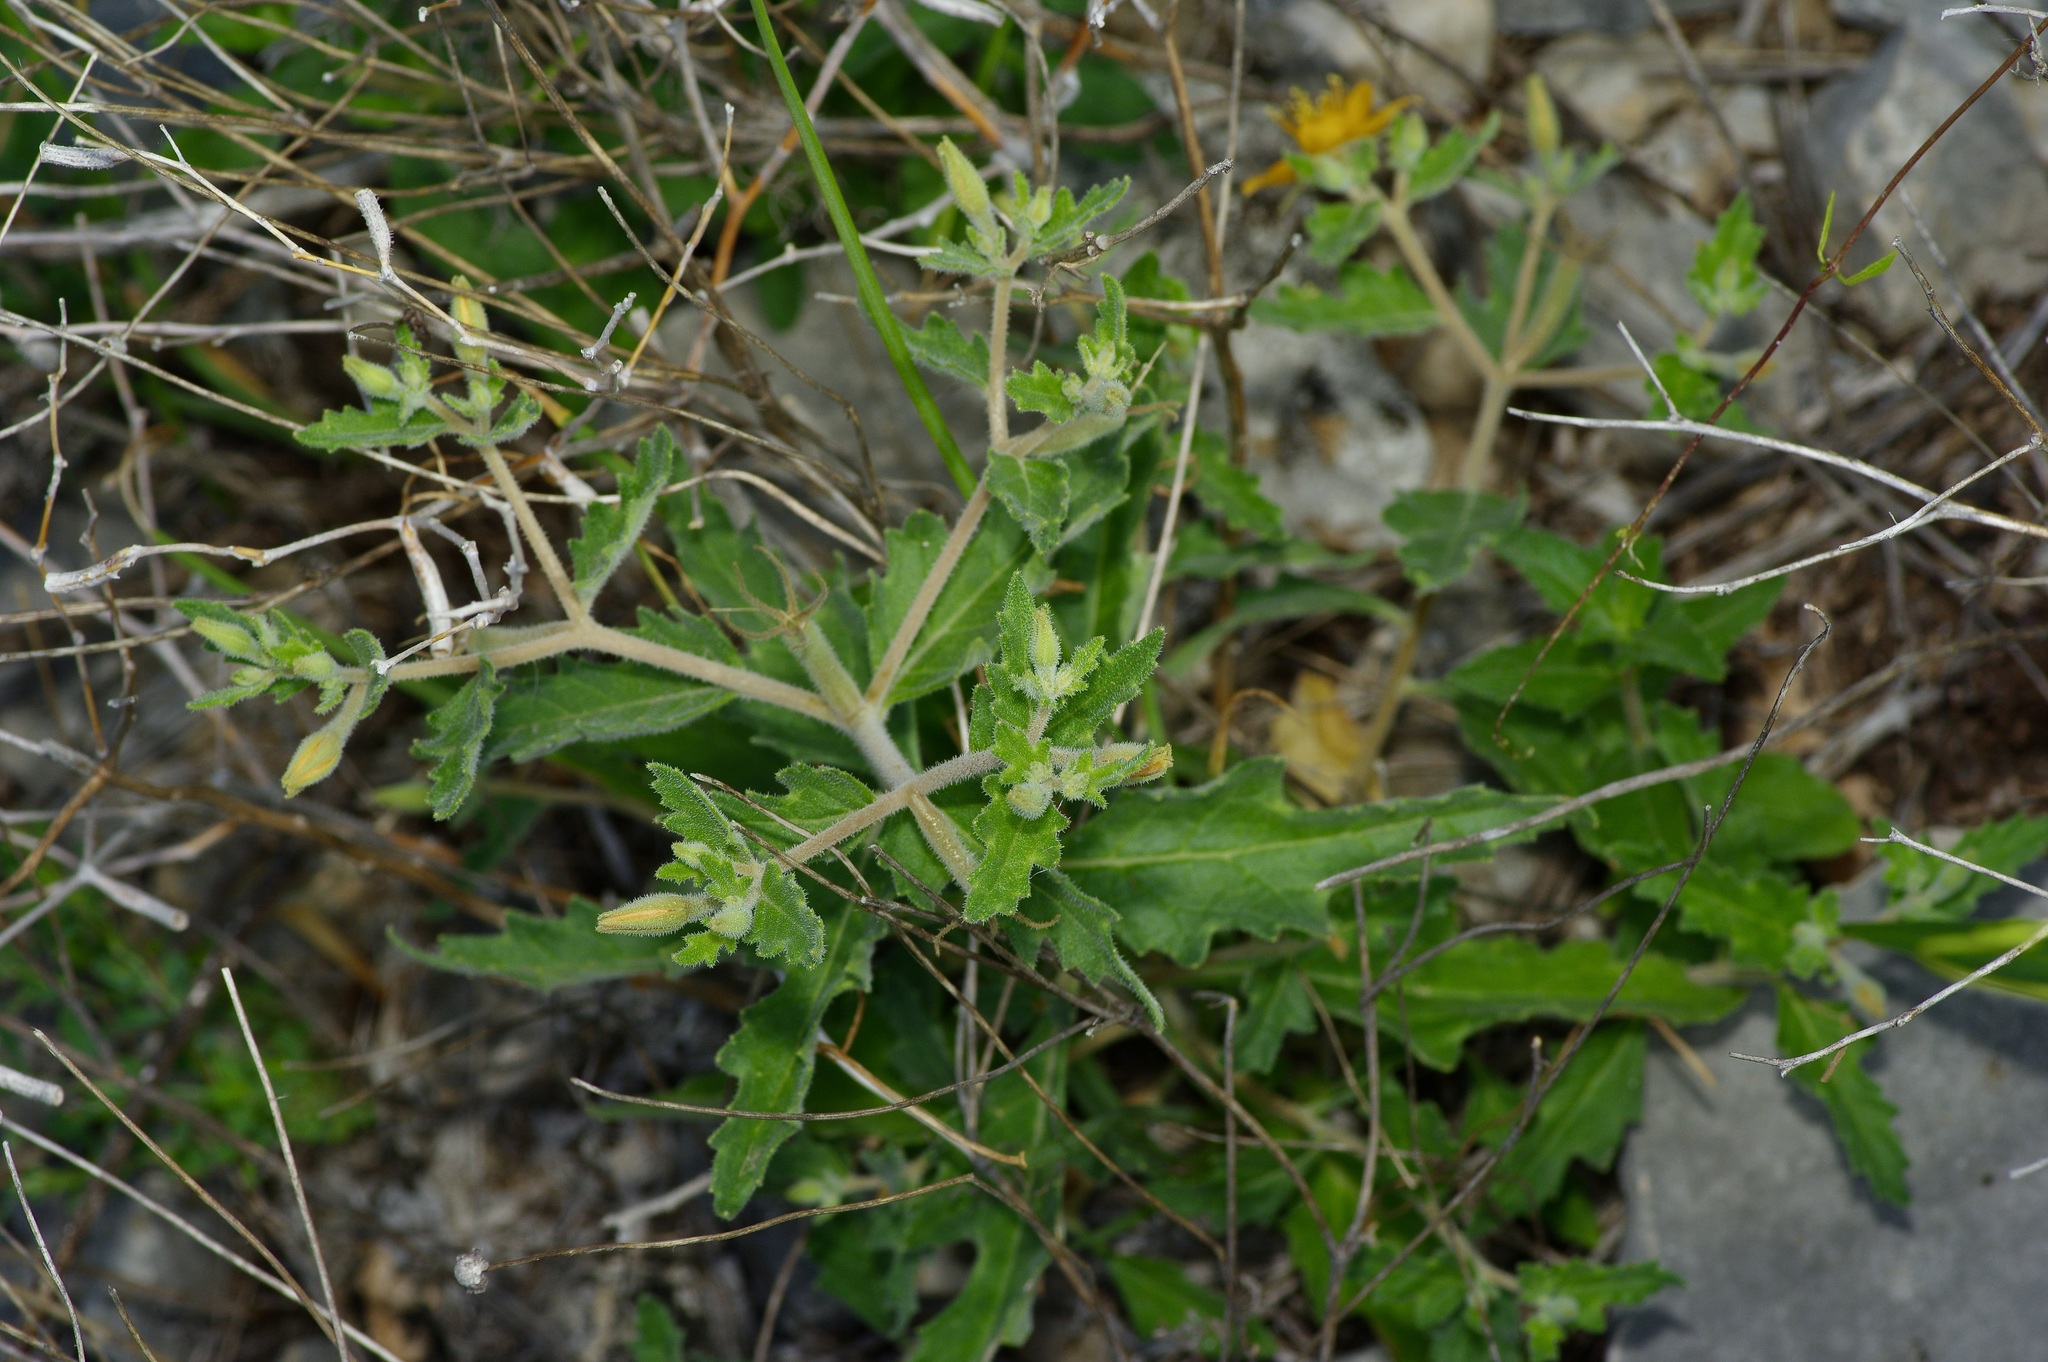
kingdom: Plantae
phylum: Tracheophyta
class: Magnoliopsida
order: Cornales
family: Loasaceae
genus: Mentzelia
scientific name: Mentzelia oligosperma
